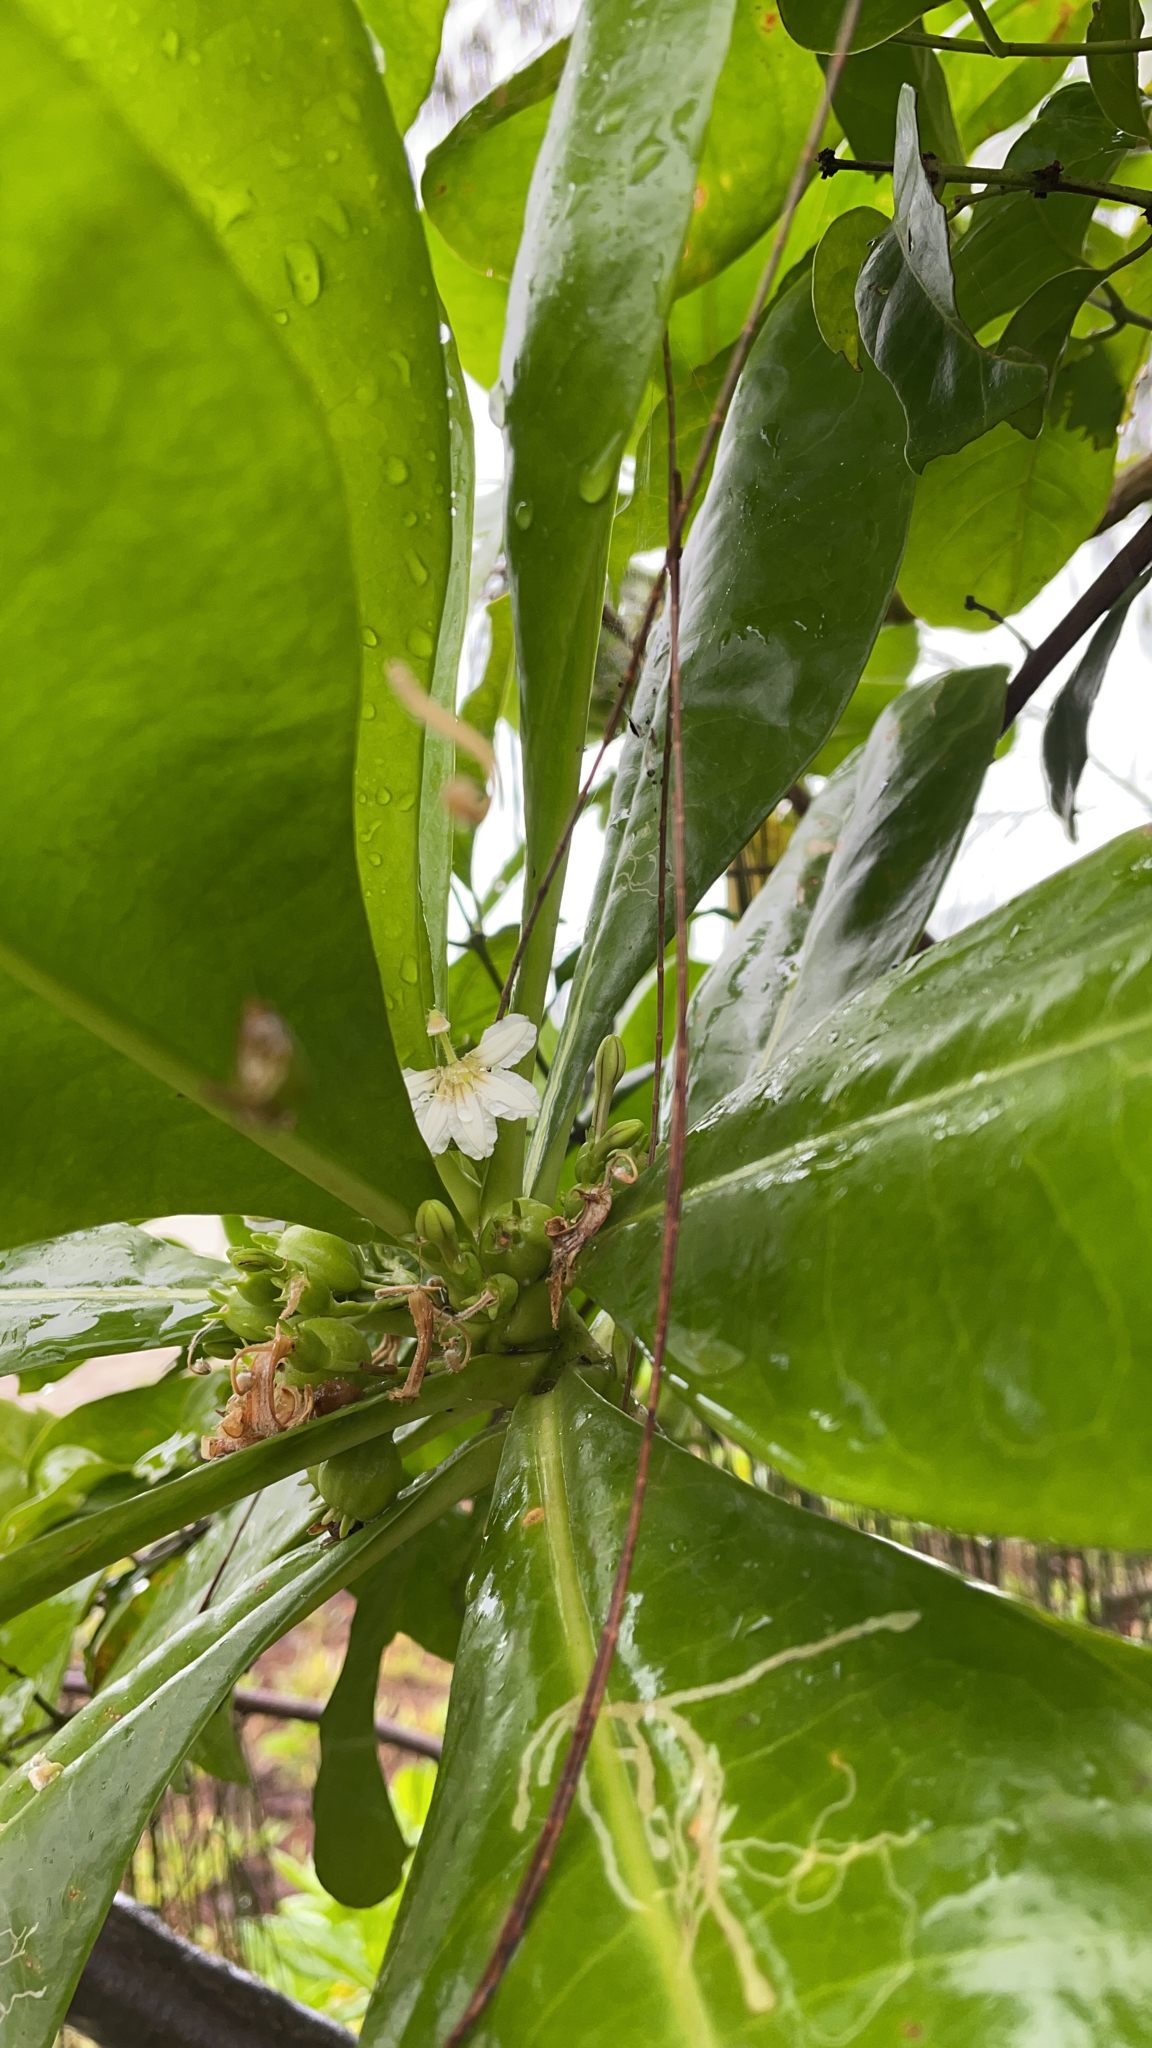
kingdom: Plantae
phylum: Tracheophyta
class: Magnoliopsida
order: Asterales
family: Goodeniaceae
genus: Scaevola
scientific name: Scaevola taccada
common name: Sea lettucetree
